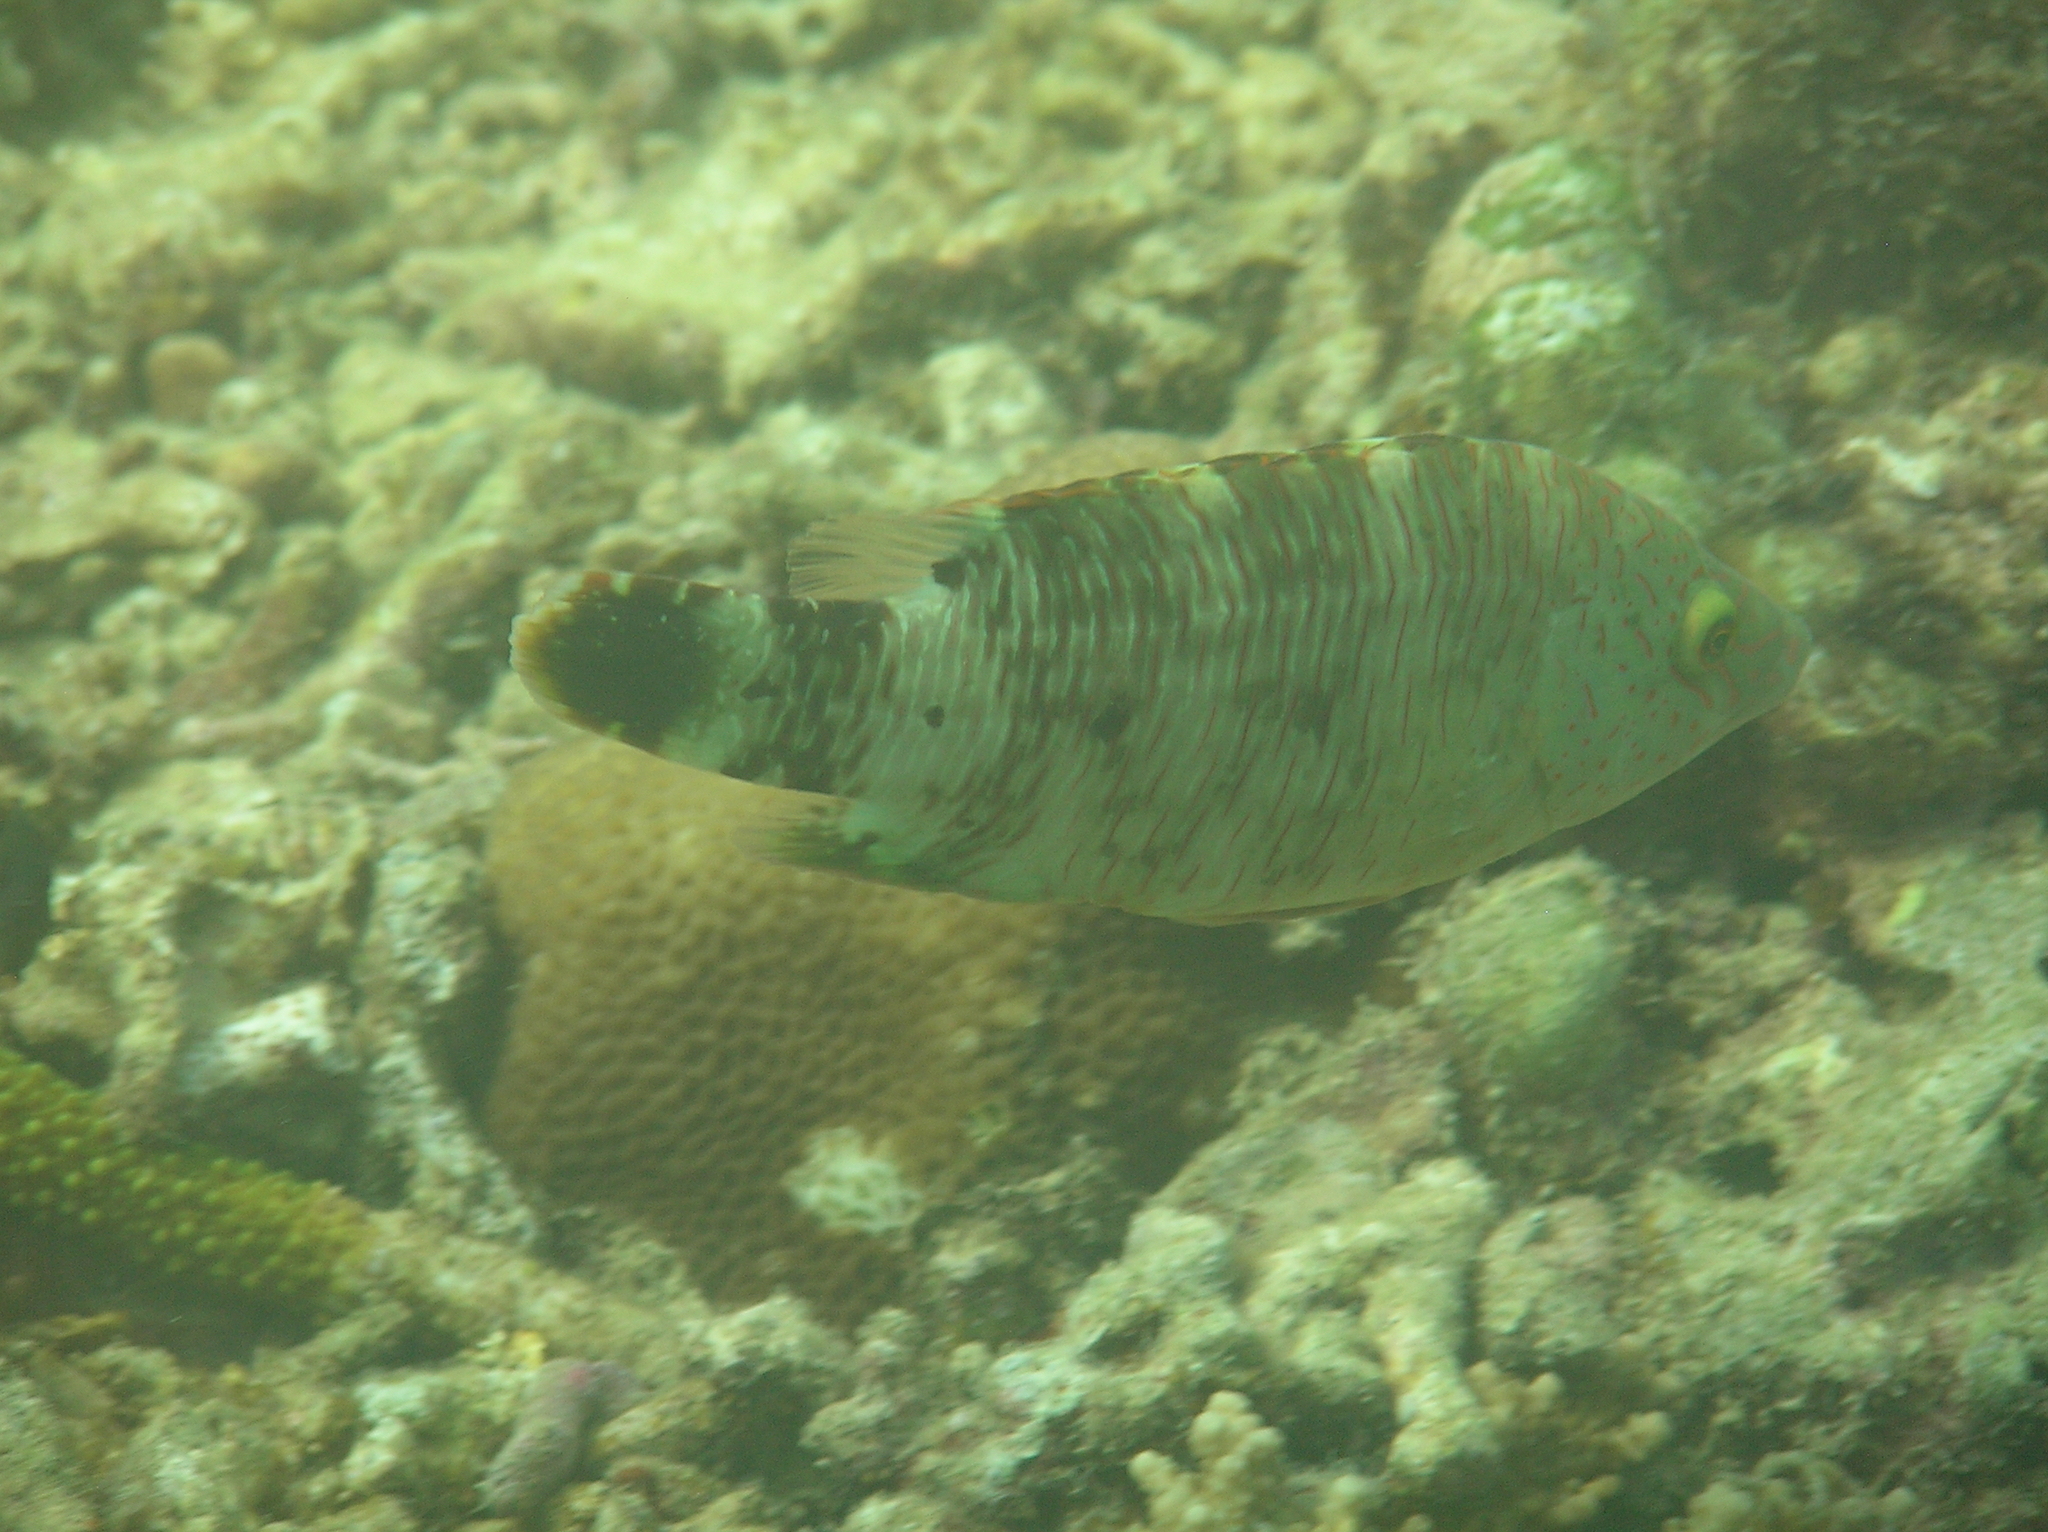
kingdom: Animalia
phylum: Chordata
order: Perciformes
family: Labridae
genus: Cheilinus
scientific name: Cheilinus trilobatus
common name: Tripletail maori wrasse
